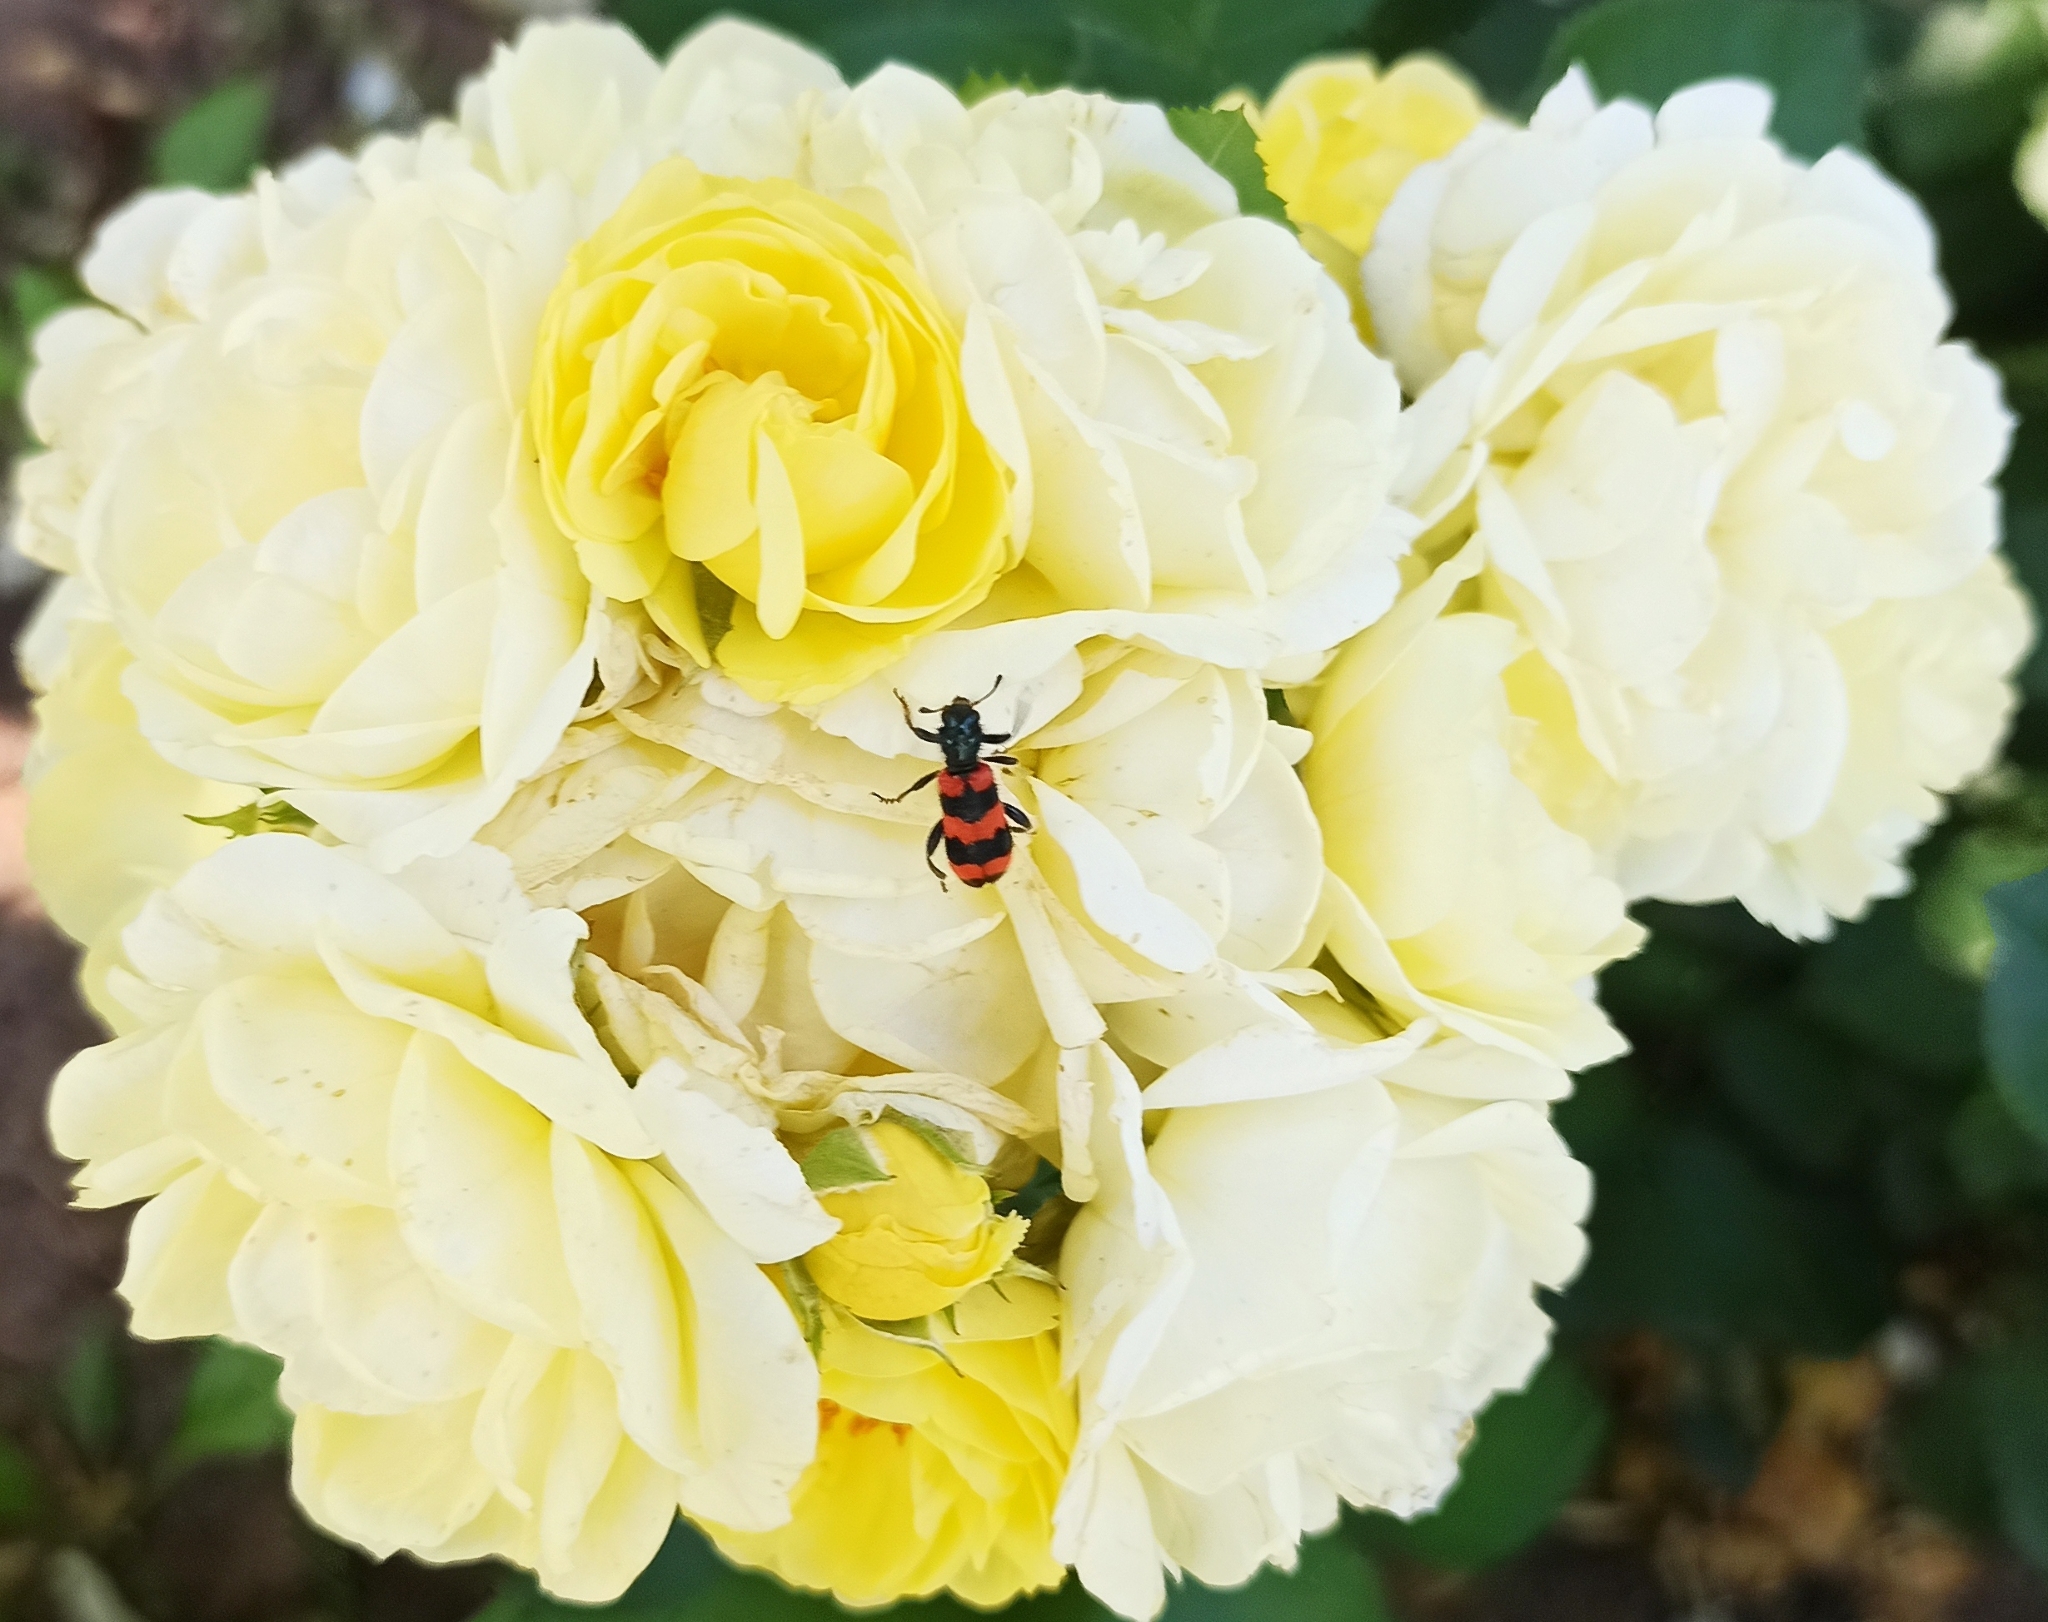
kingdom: Animalia
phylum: Arthropoda
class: Insecta
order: Coleoptera
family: Cleridae
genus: Trichodes
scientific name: Trichodes apiarius
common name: Bee-eating beetle
